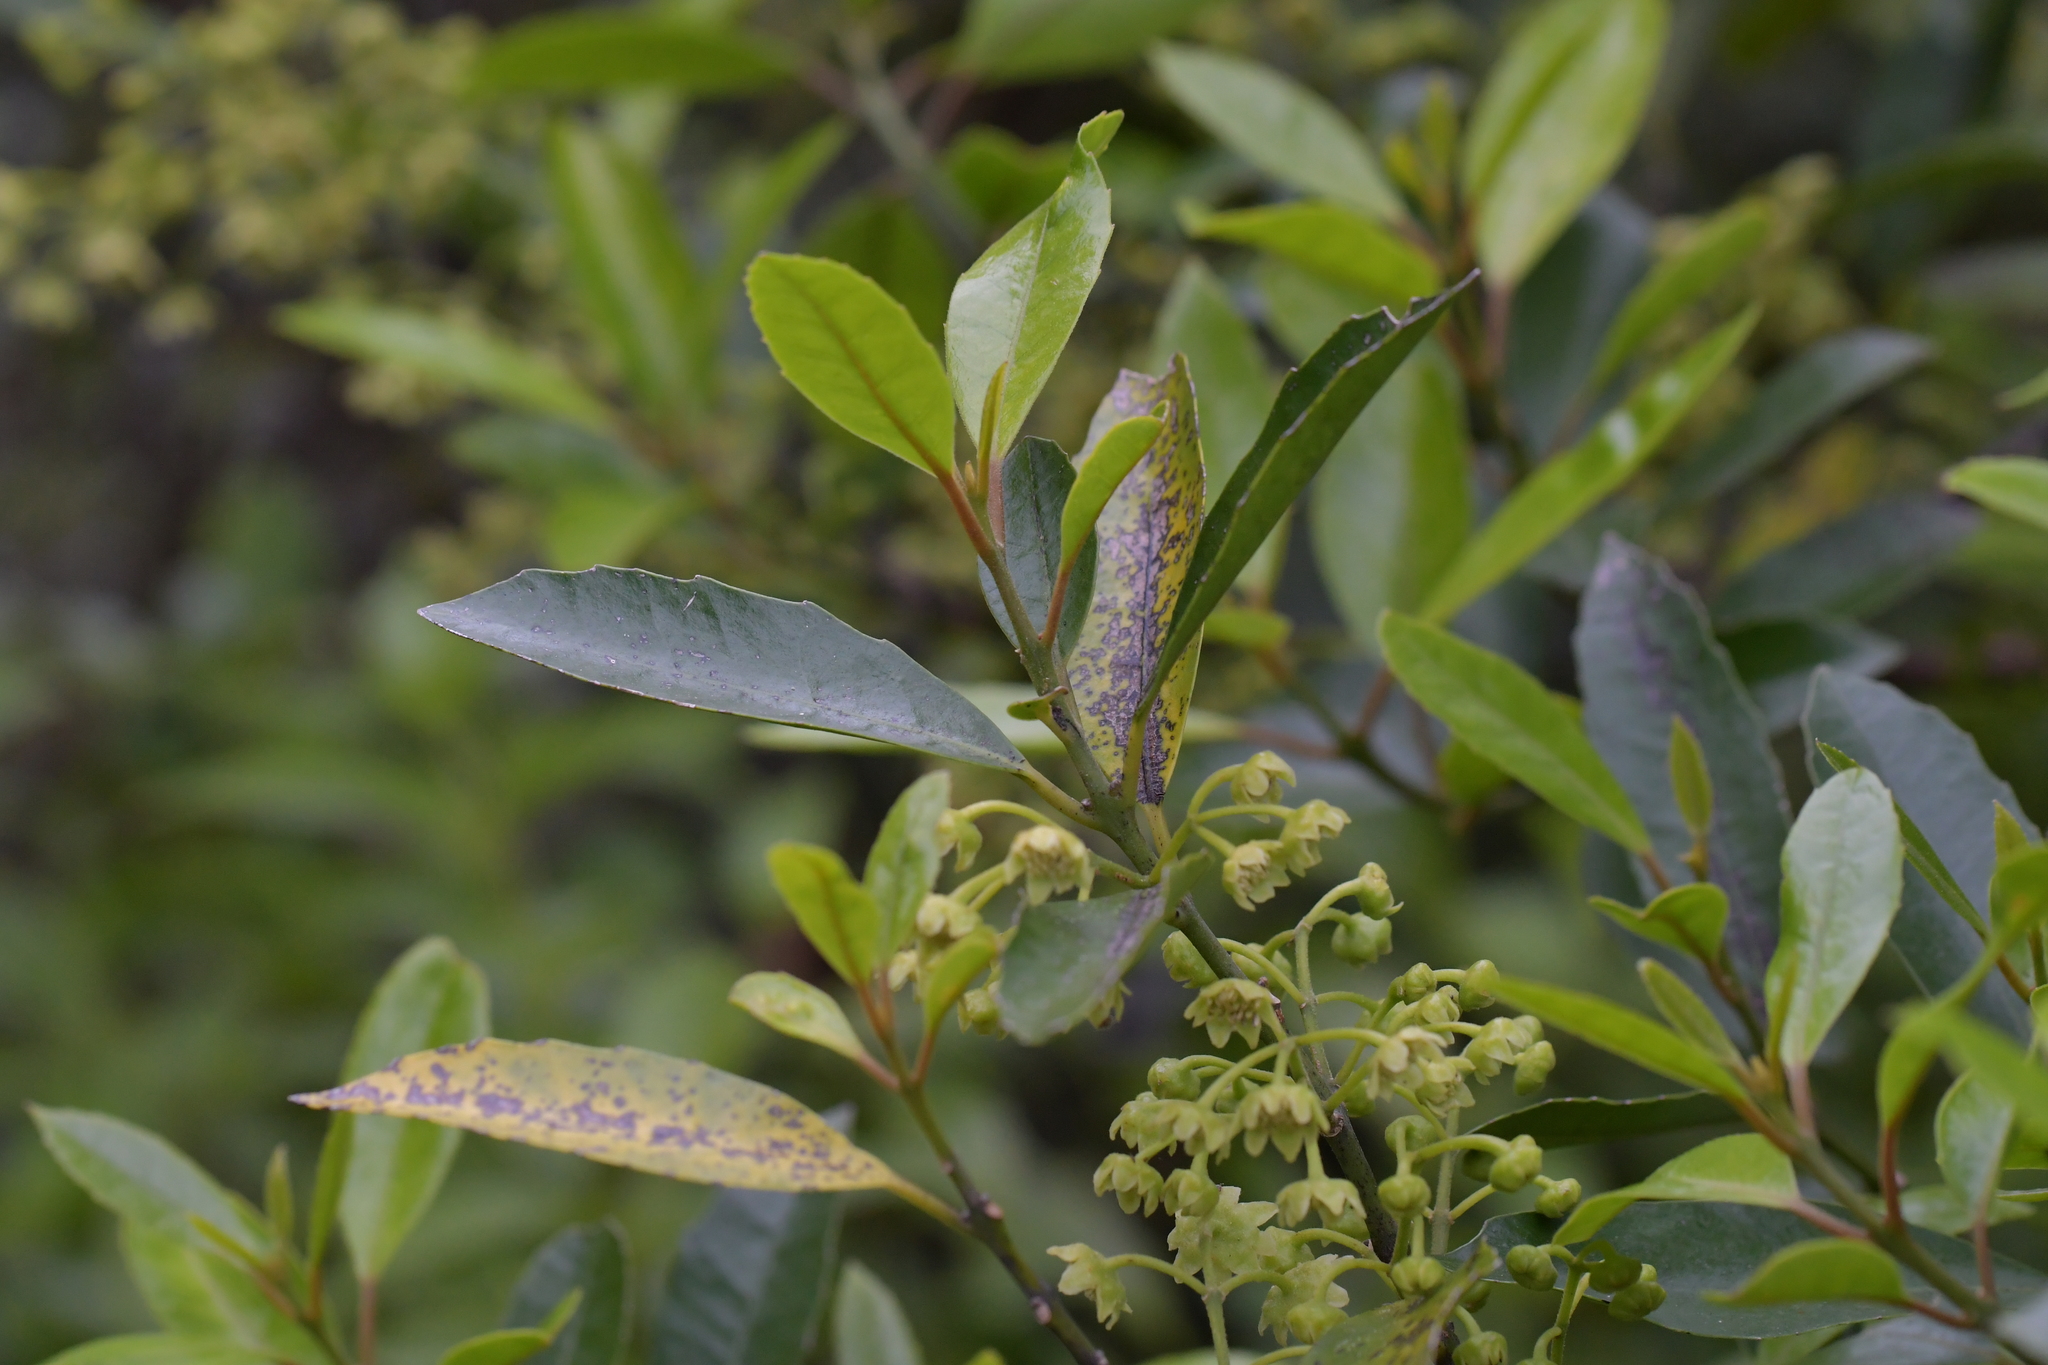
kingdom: Plantae
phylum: Tracheophyta
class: Magnoliopsida
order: Laurales
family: Monimiaceae
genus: Hedycarya
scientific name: Hedycarya arborea
